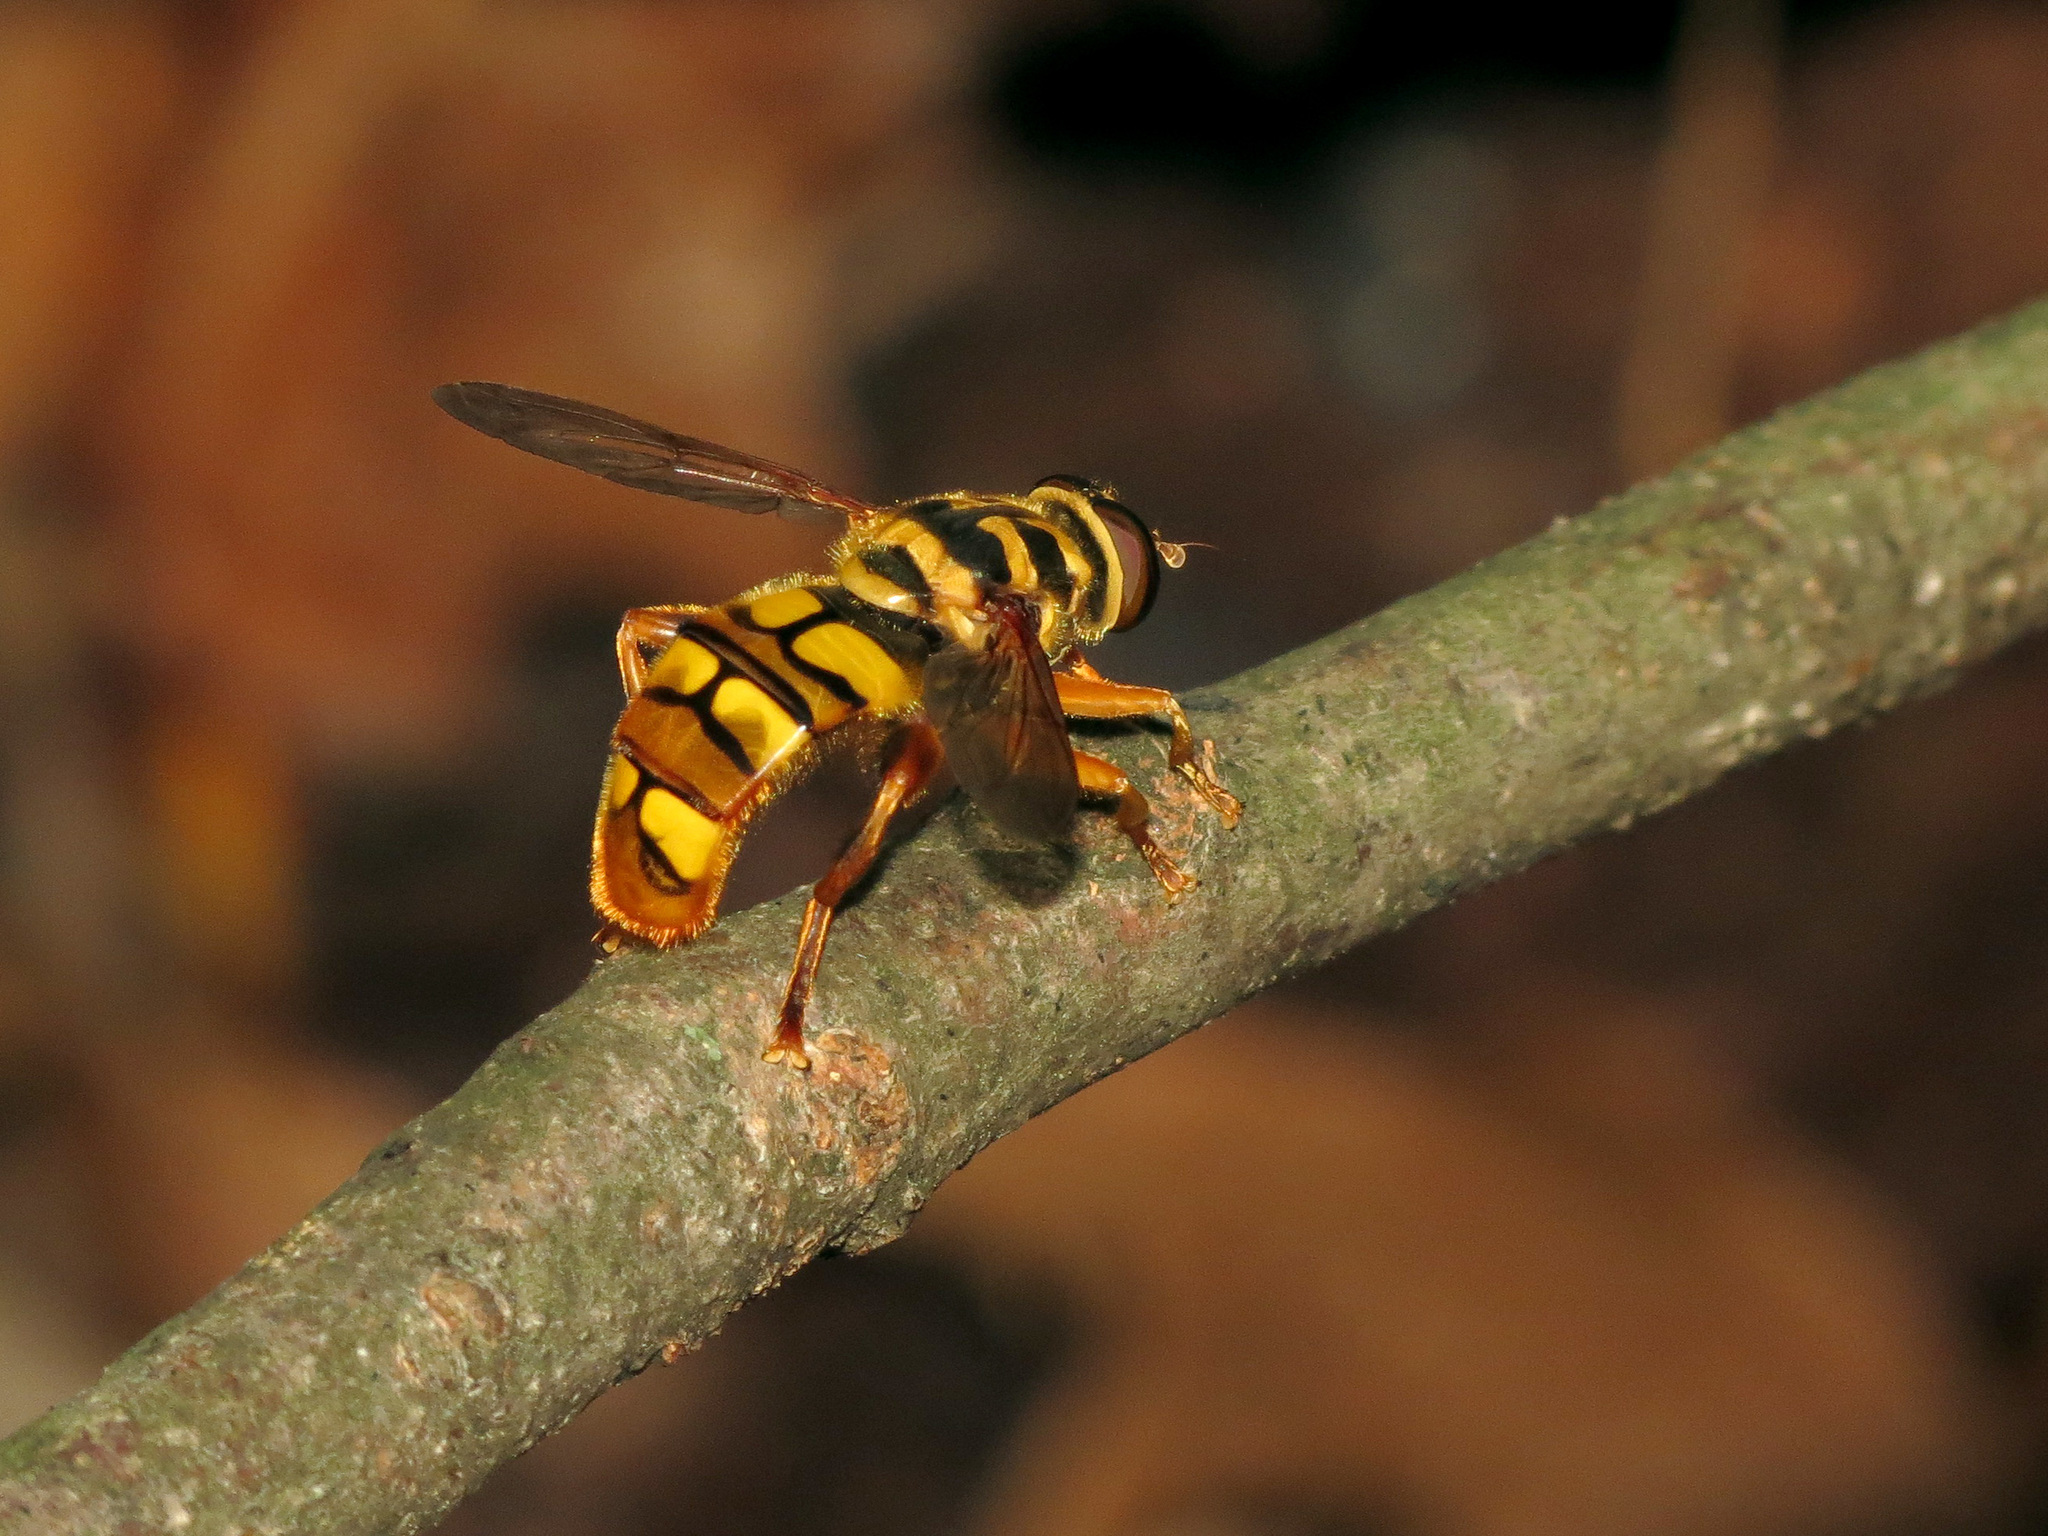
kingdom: Animalia
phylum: Arthropoda
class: Insecta
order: Diptera
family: Syrphidae
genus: Milesia
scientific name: Milesia virginiensis
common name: Virginia giant
